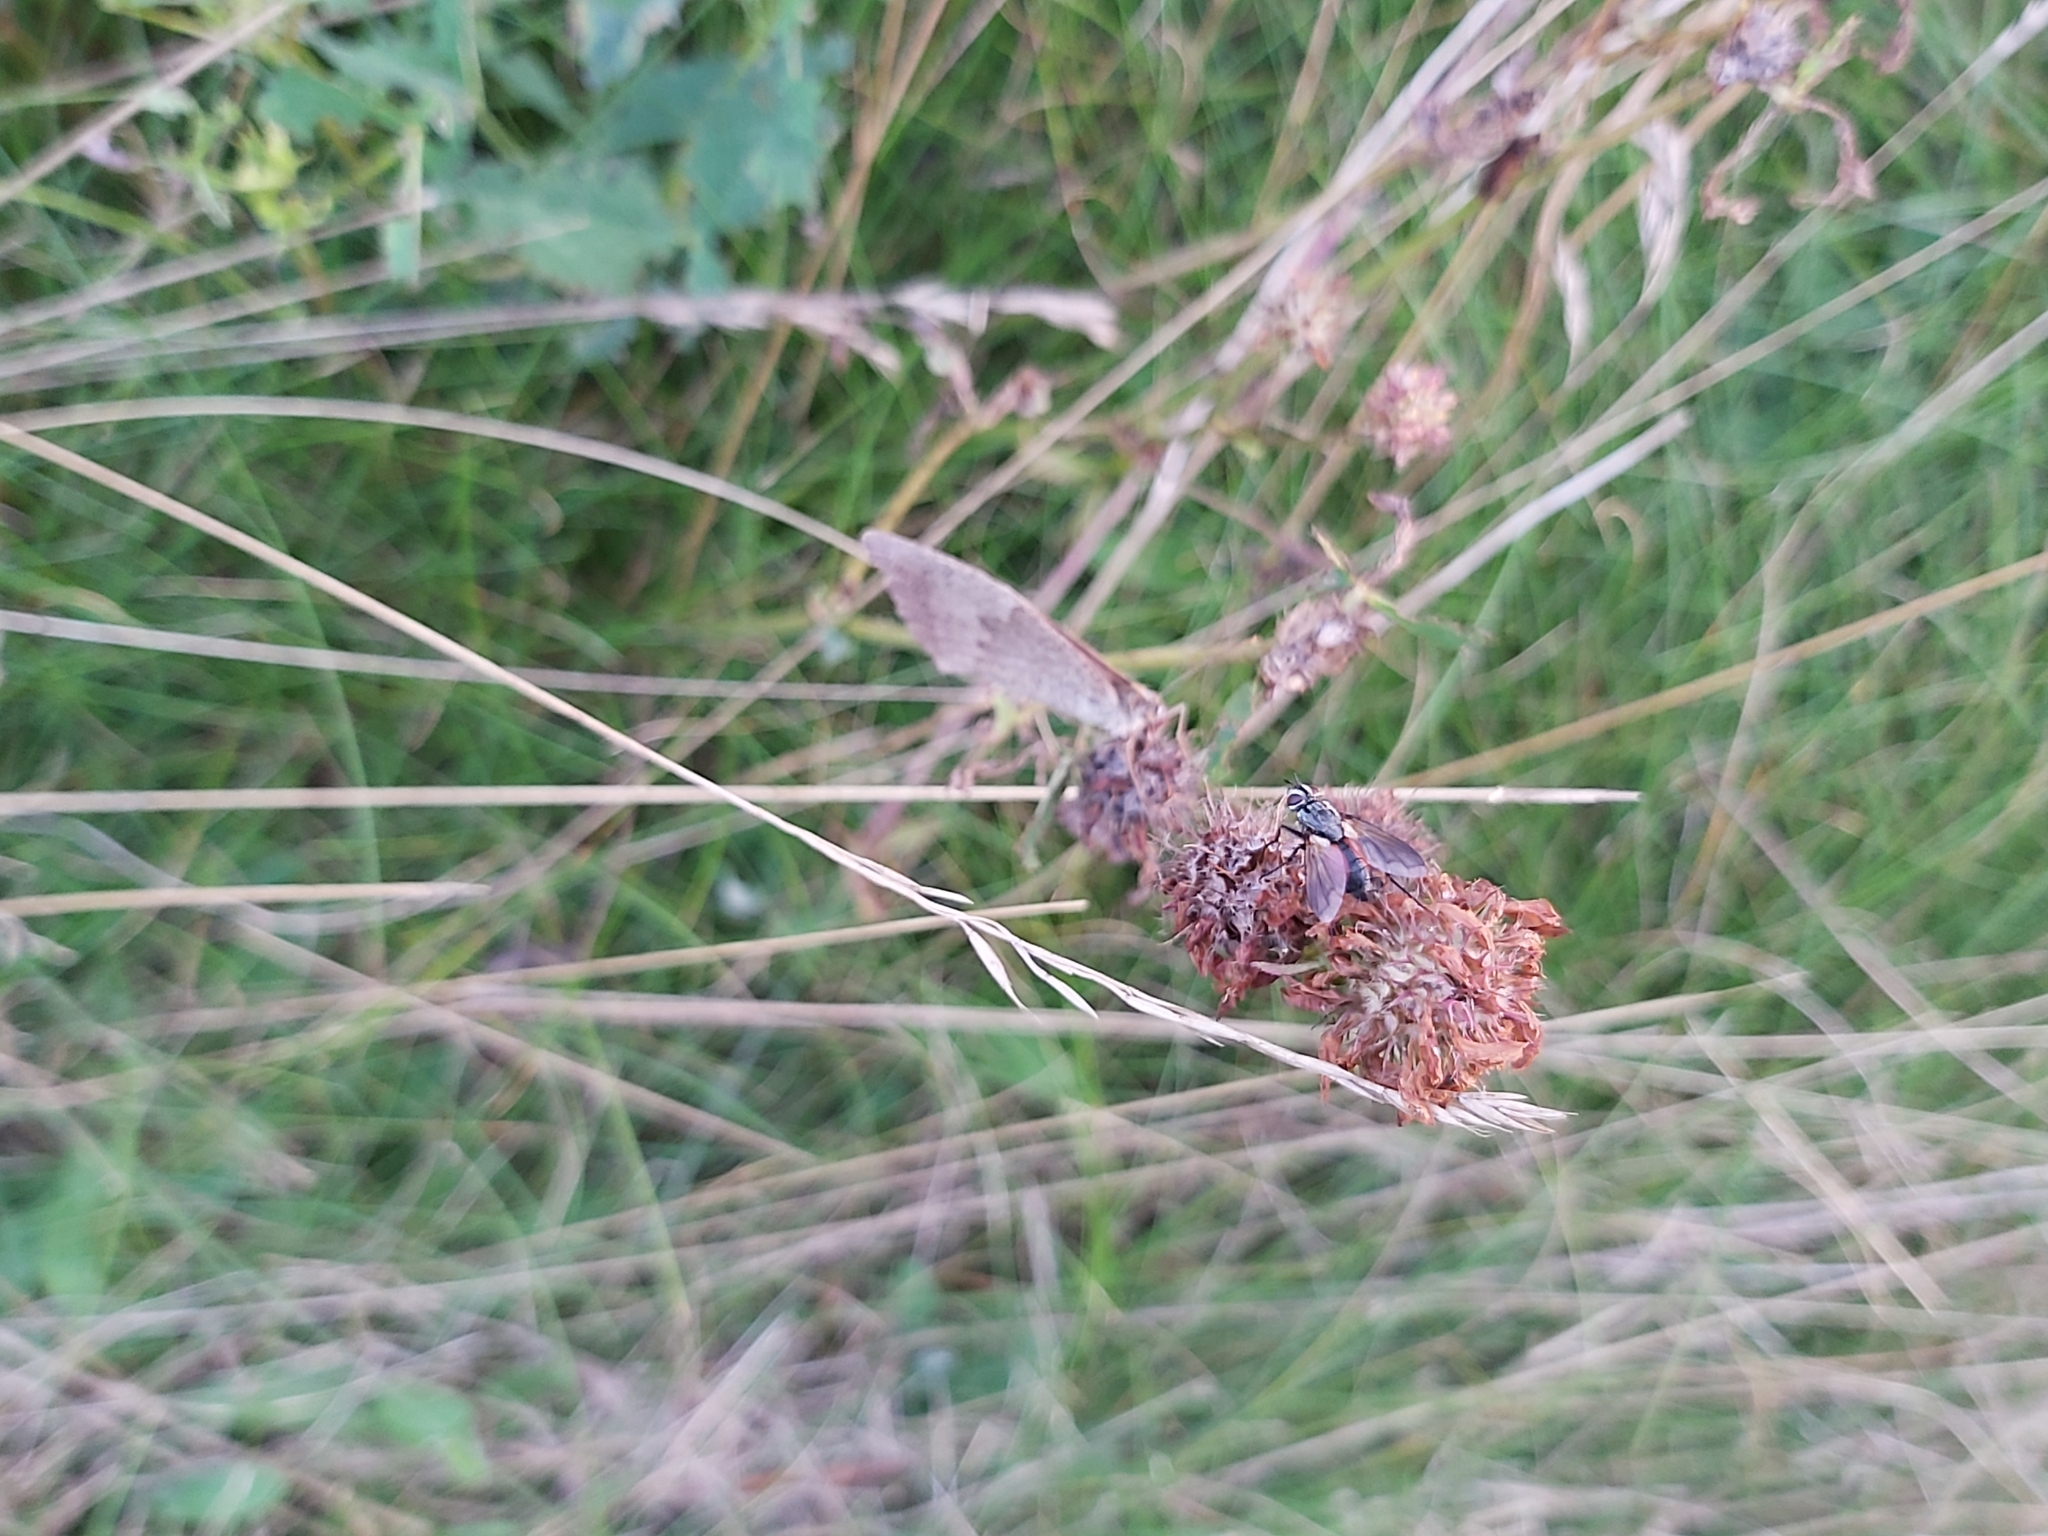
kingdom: Animalia
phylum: Arthropoda
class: Insecta
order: Diptera
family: Tachinidae
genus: Eriothrix
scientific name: Eriothrix rufomaculatus
